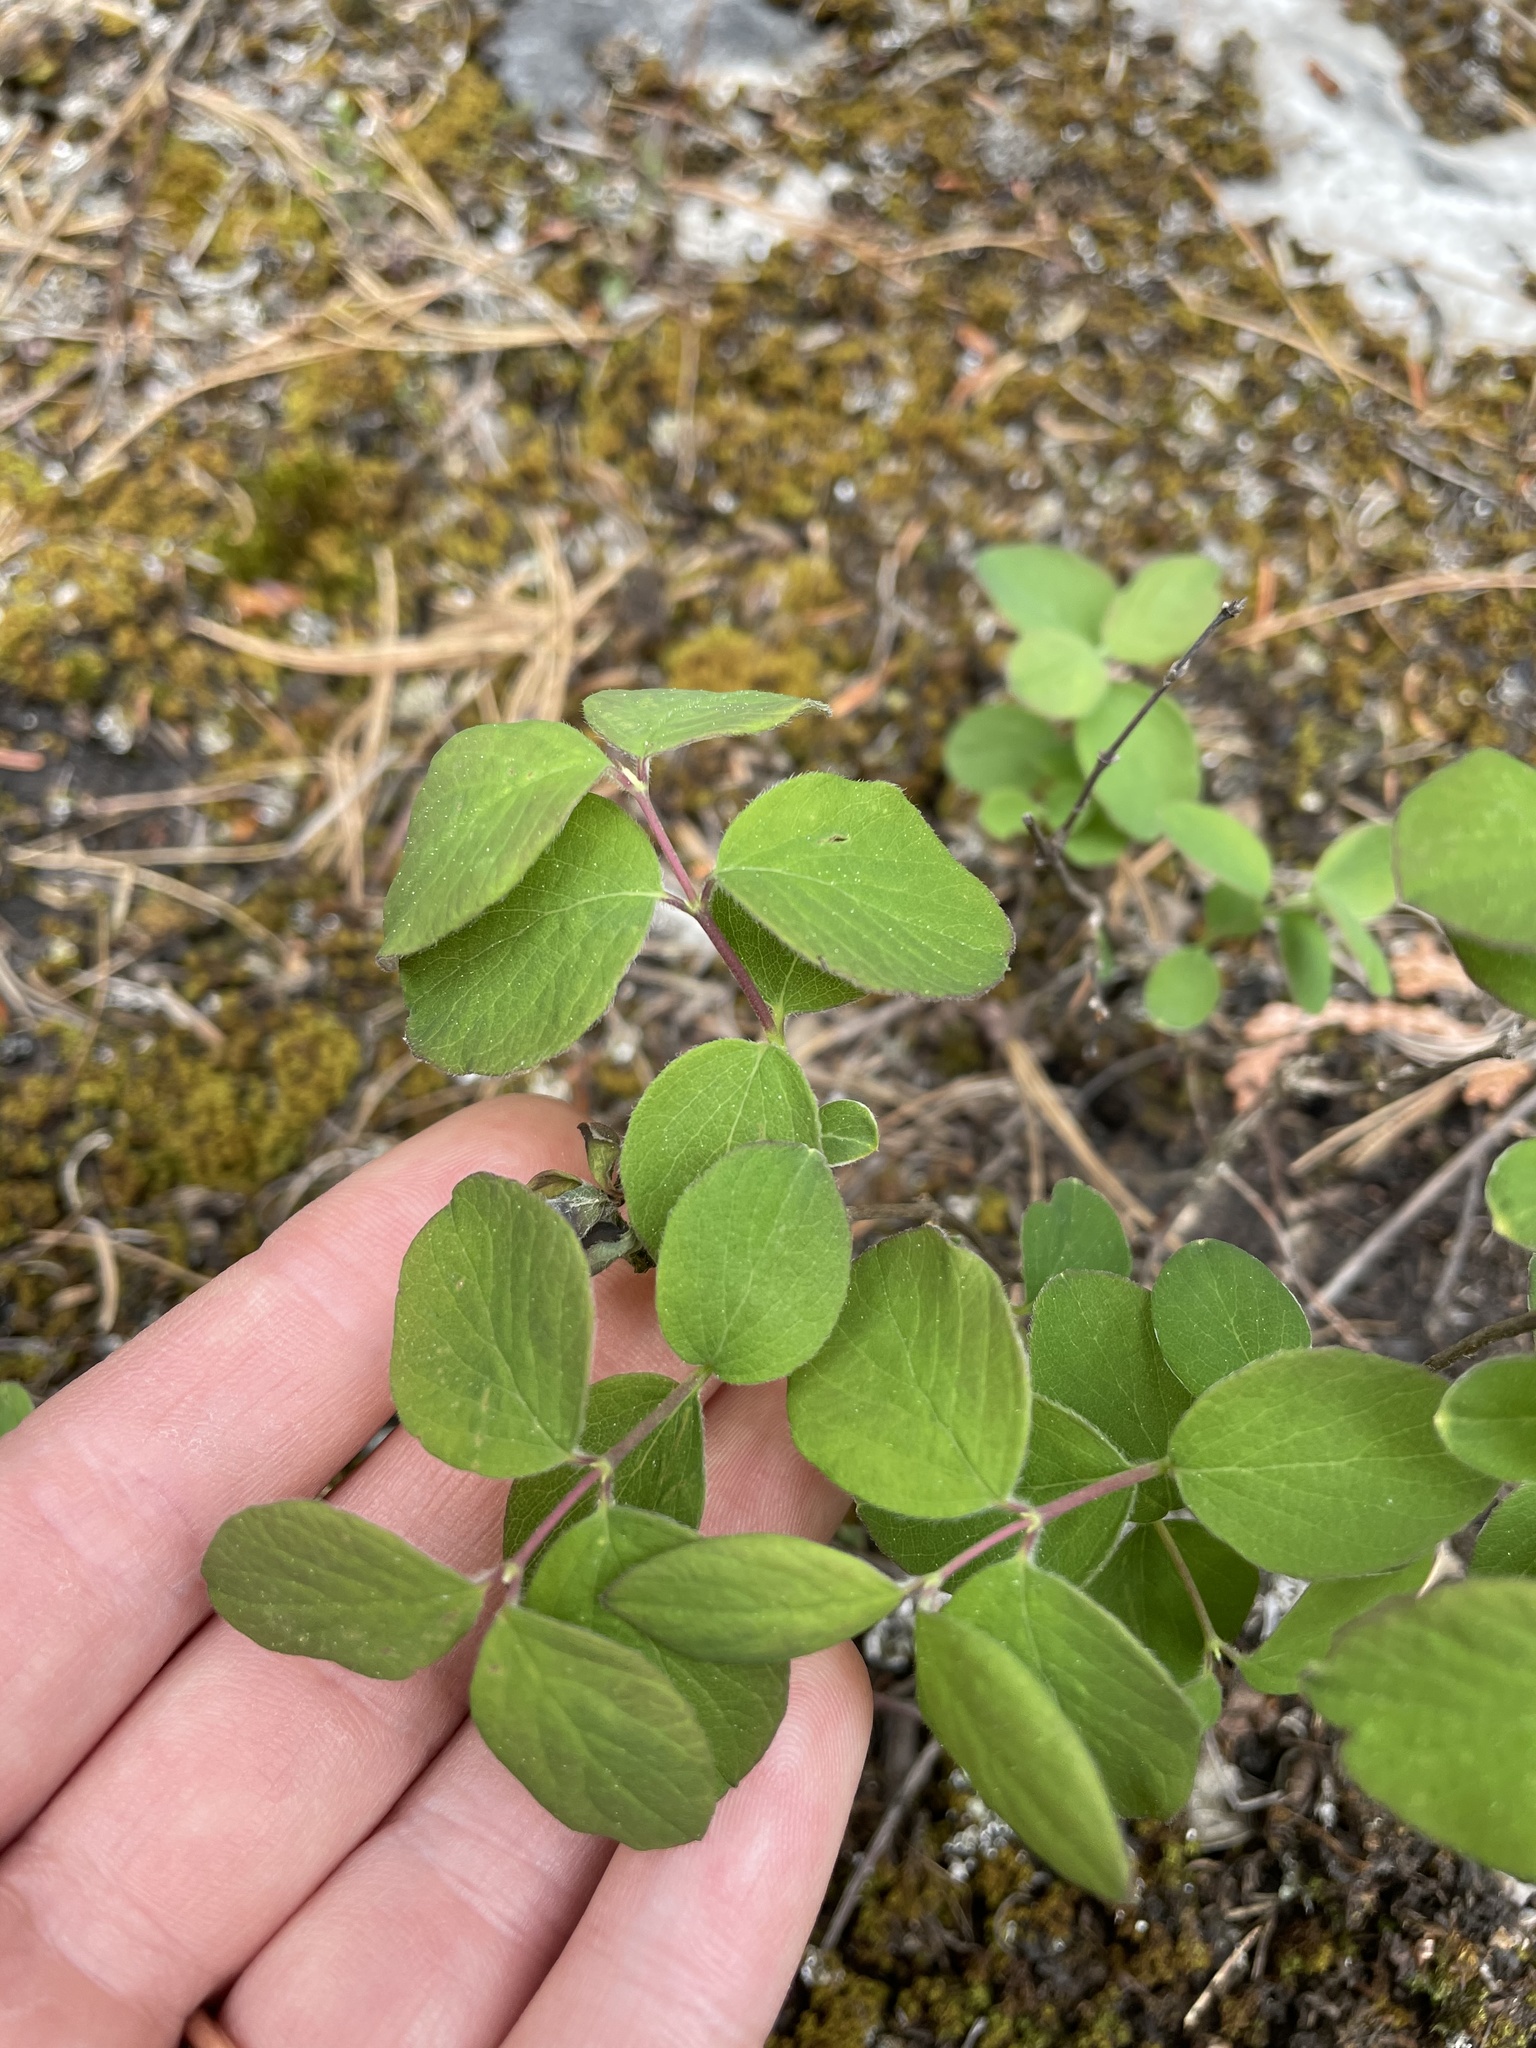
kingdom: Plantae
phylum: Tracheophyta
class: Magnoliopsida
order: Dipsacales
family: Caprifoliaceae
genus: Symphoricarpos
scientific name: Symphoricarpos albus
